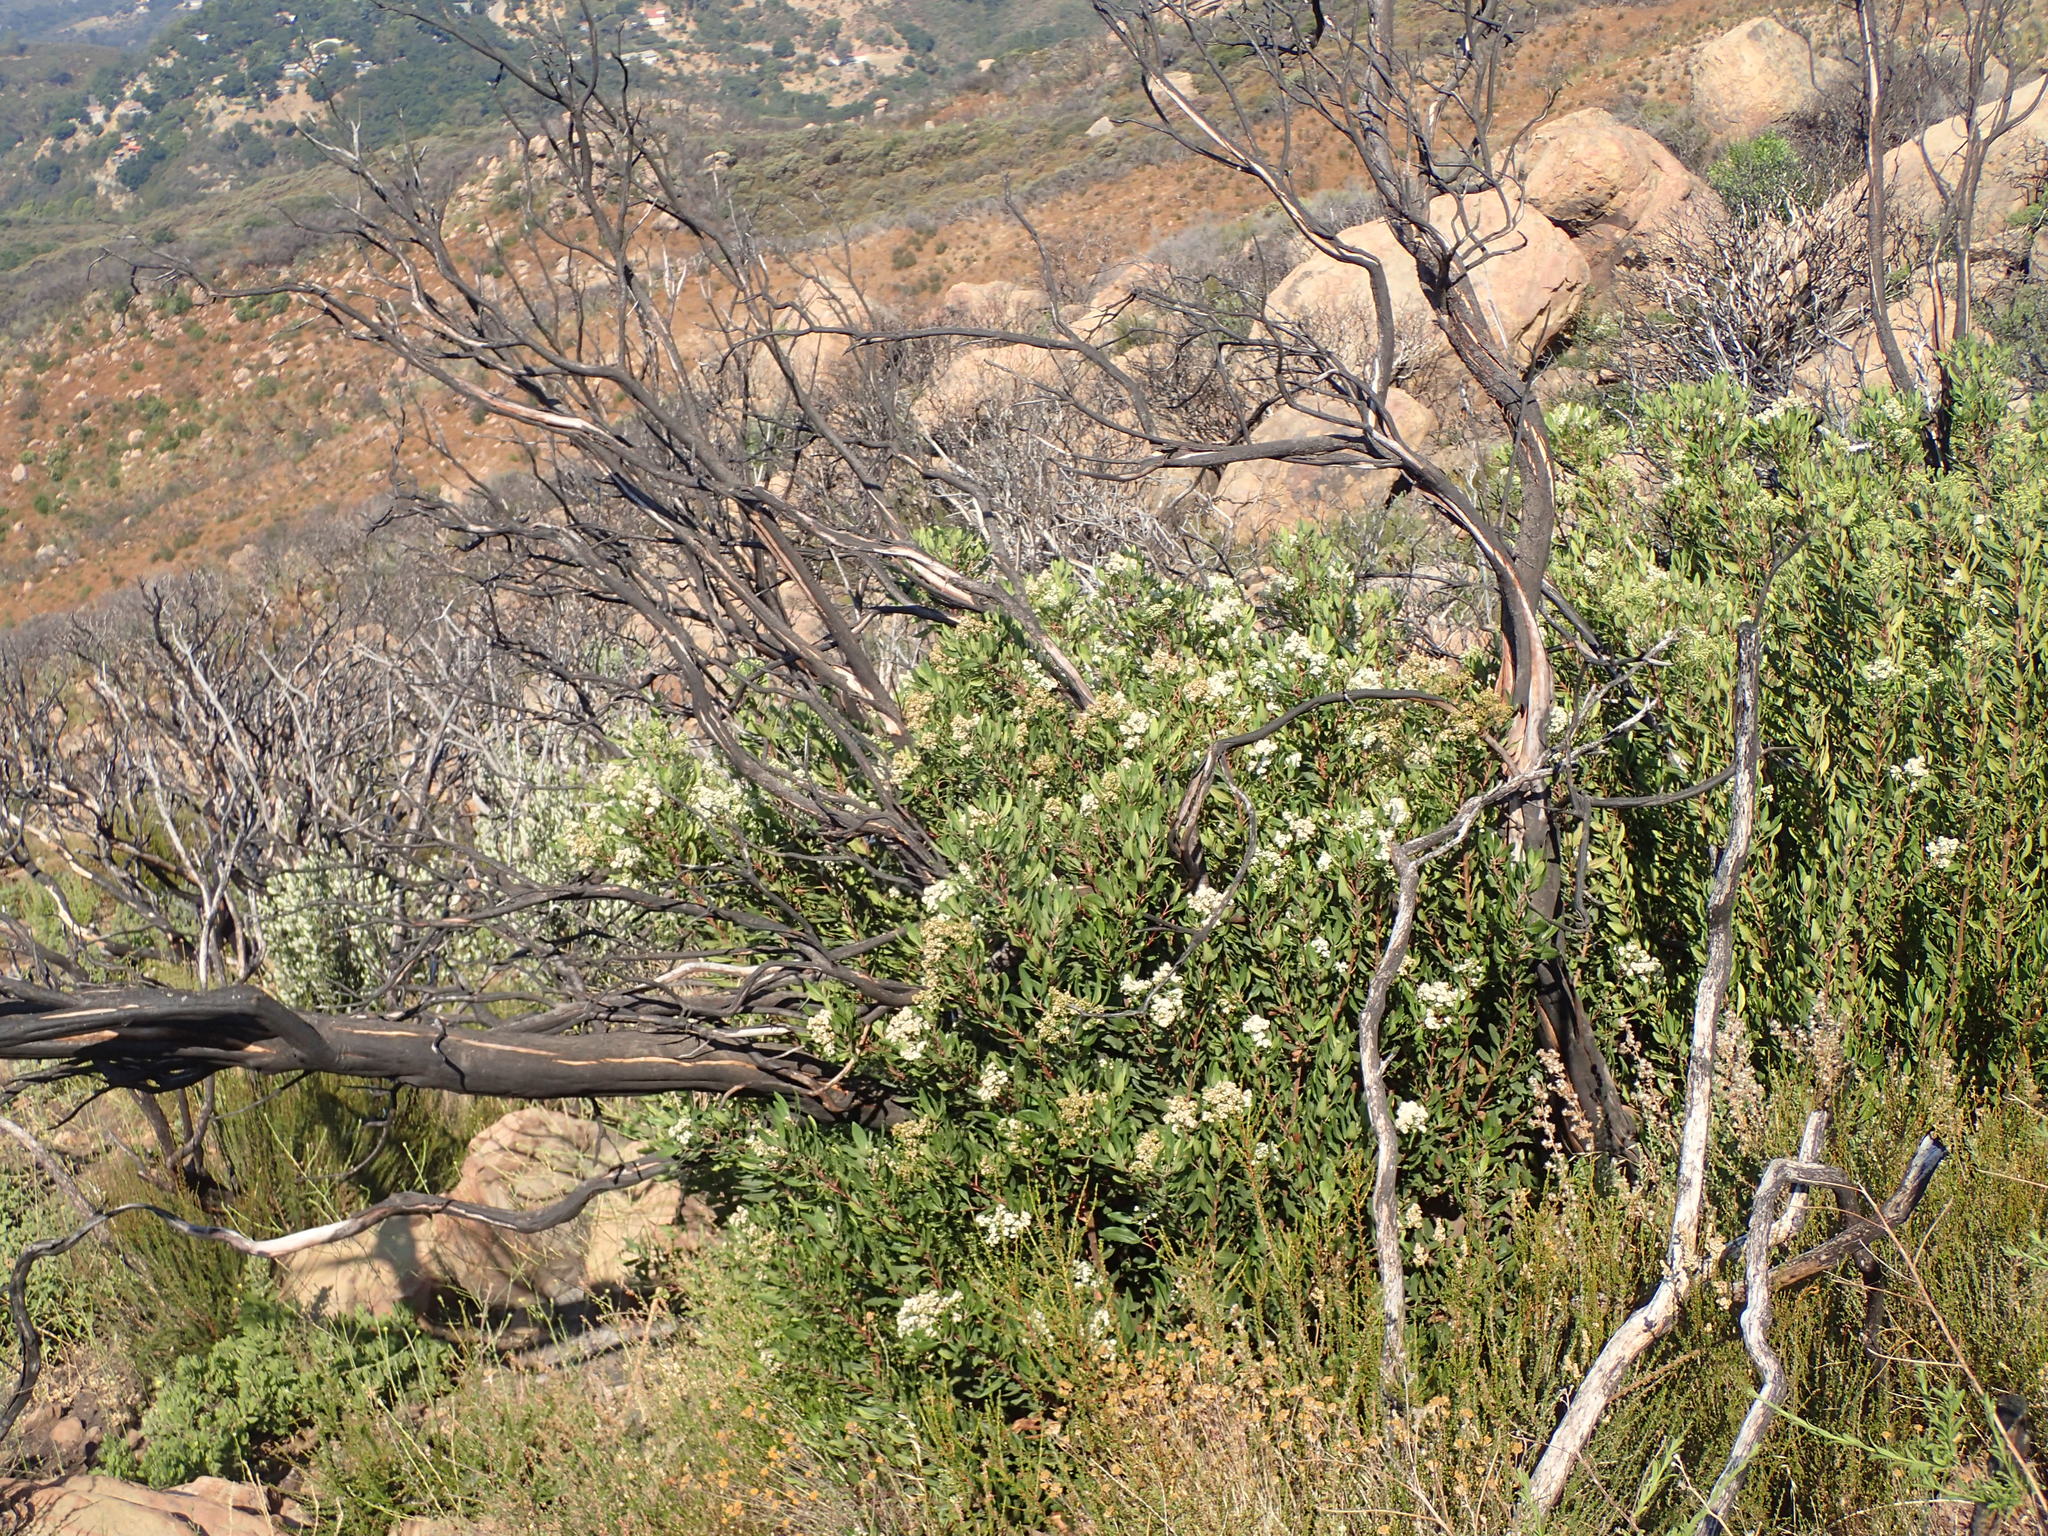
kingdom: Plantae
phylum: Tracheophyta
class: Magnoliopsida
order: Rosales
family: Rosaceae
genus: Heteromeles
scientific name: Heteromeles arbutifolia
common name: California-holly
